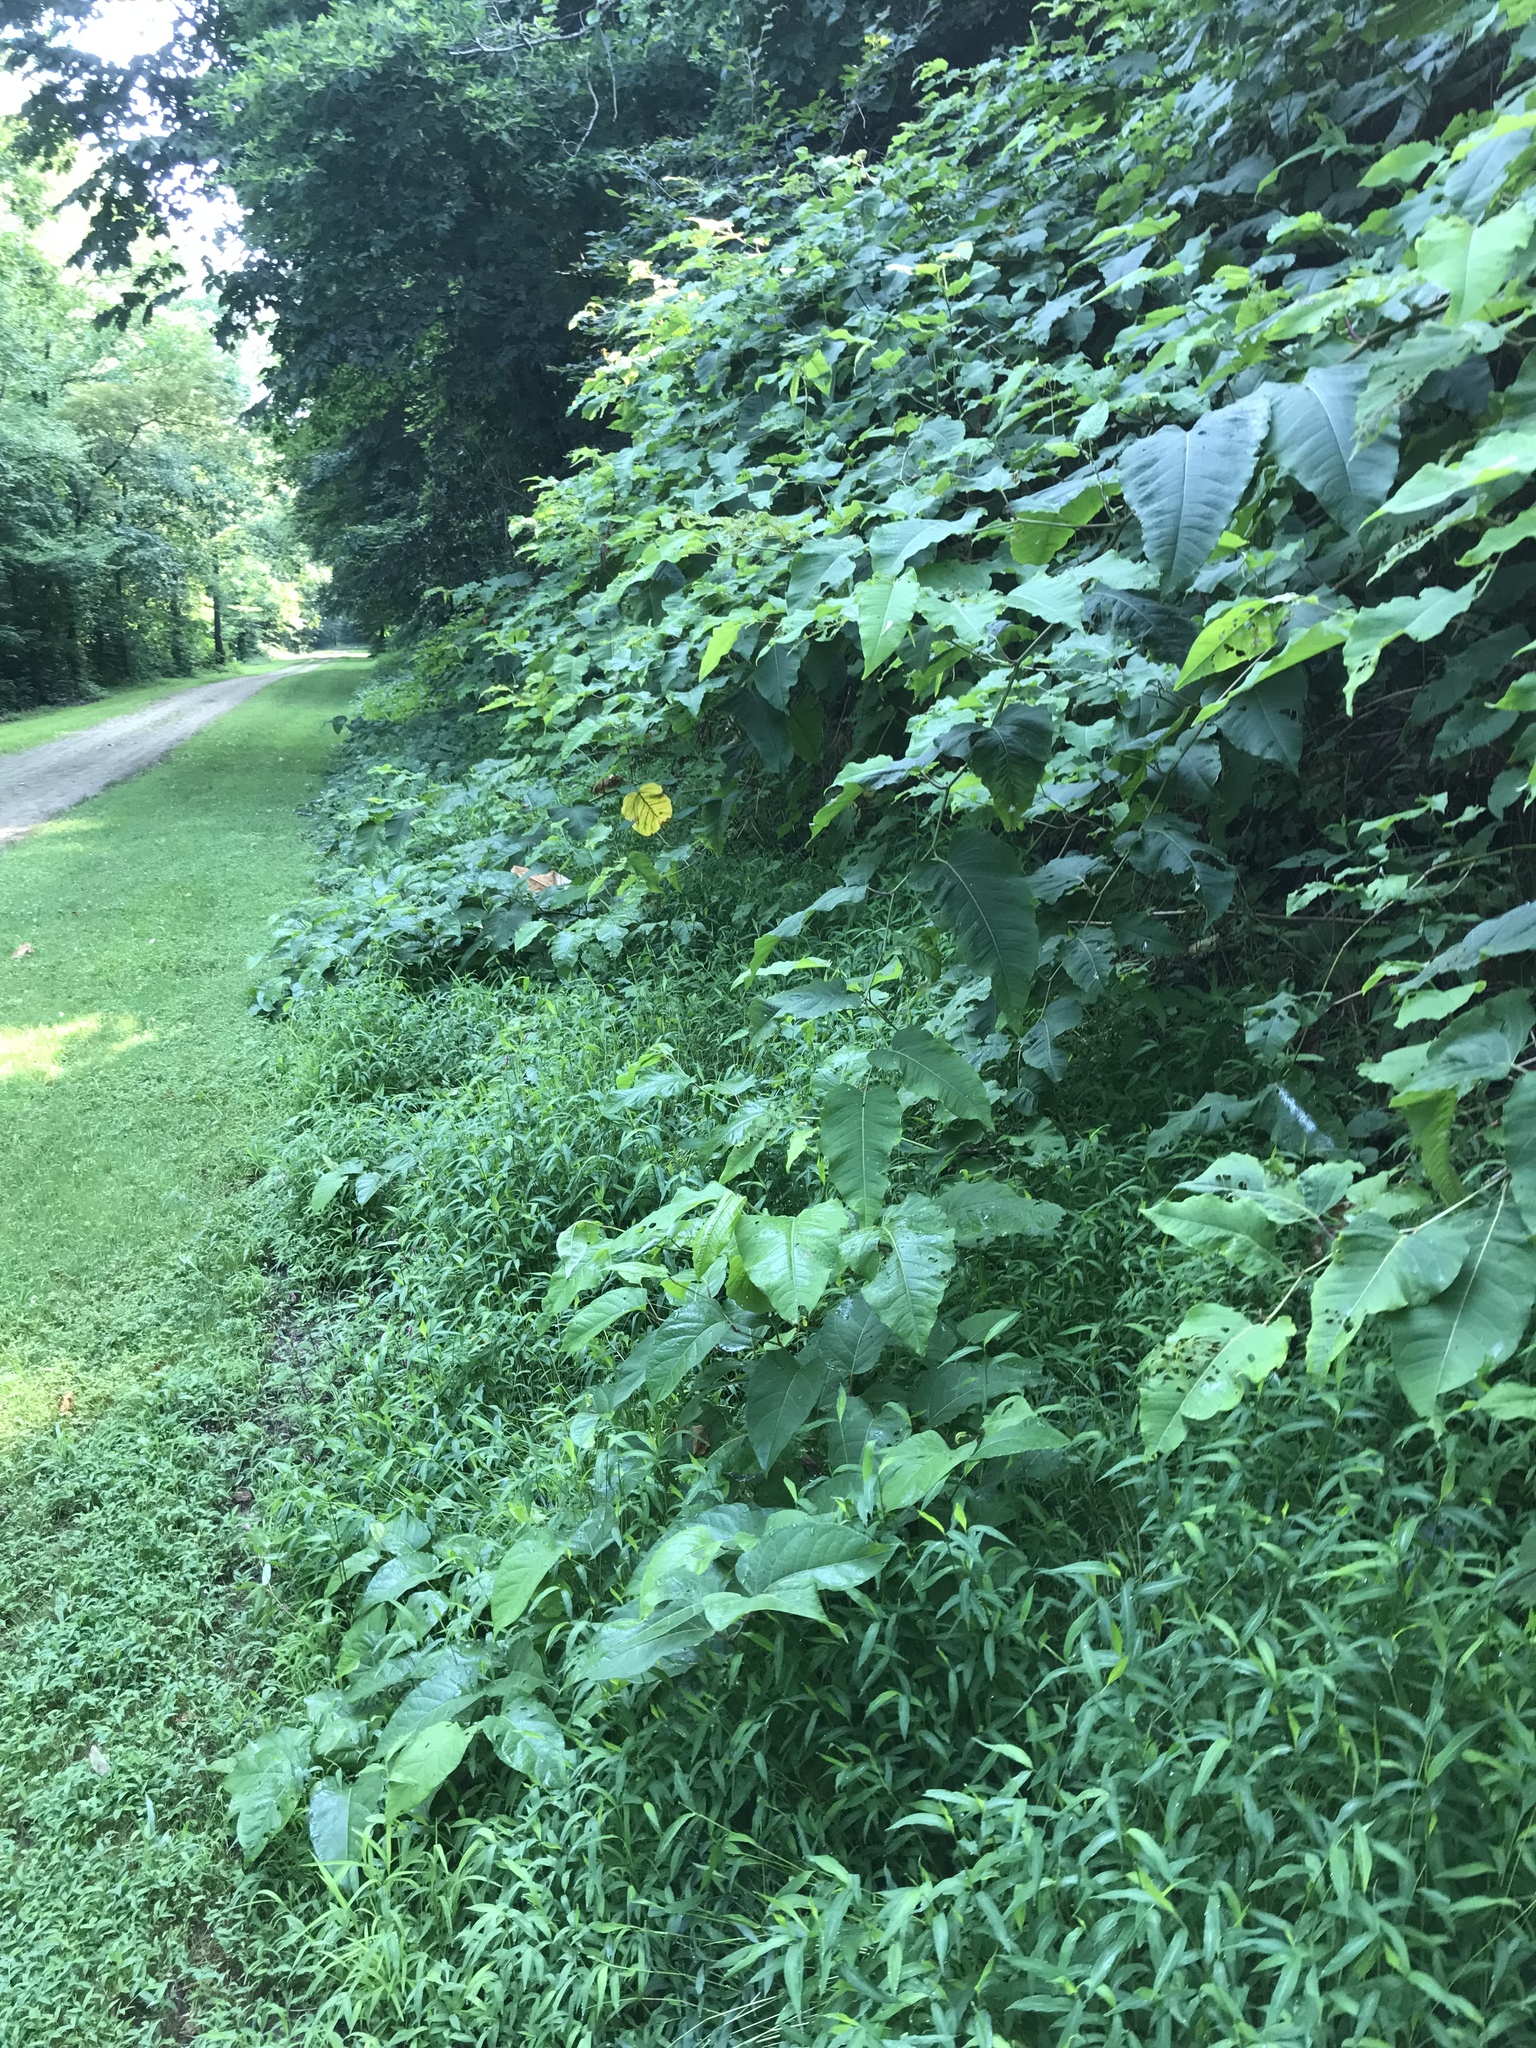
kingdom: Plantae
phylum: Tracheophyta
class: Magnoliopsida
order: Caryophyllales
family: Polygonaceae
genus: Reynoutria
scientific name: Reynoutria sachalinensis
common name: Giant knotweed
